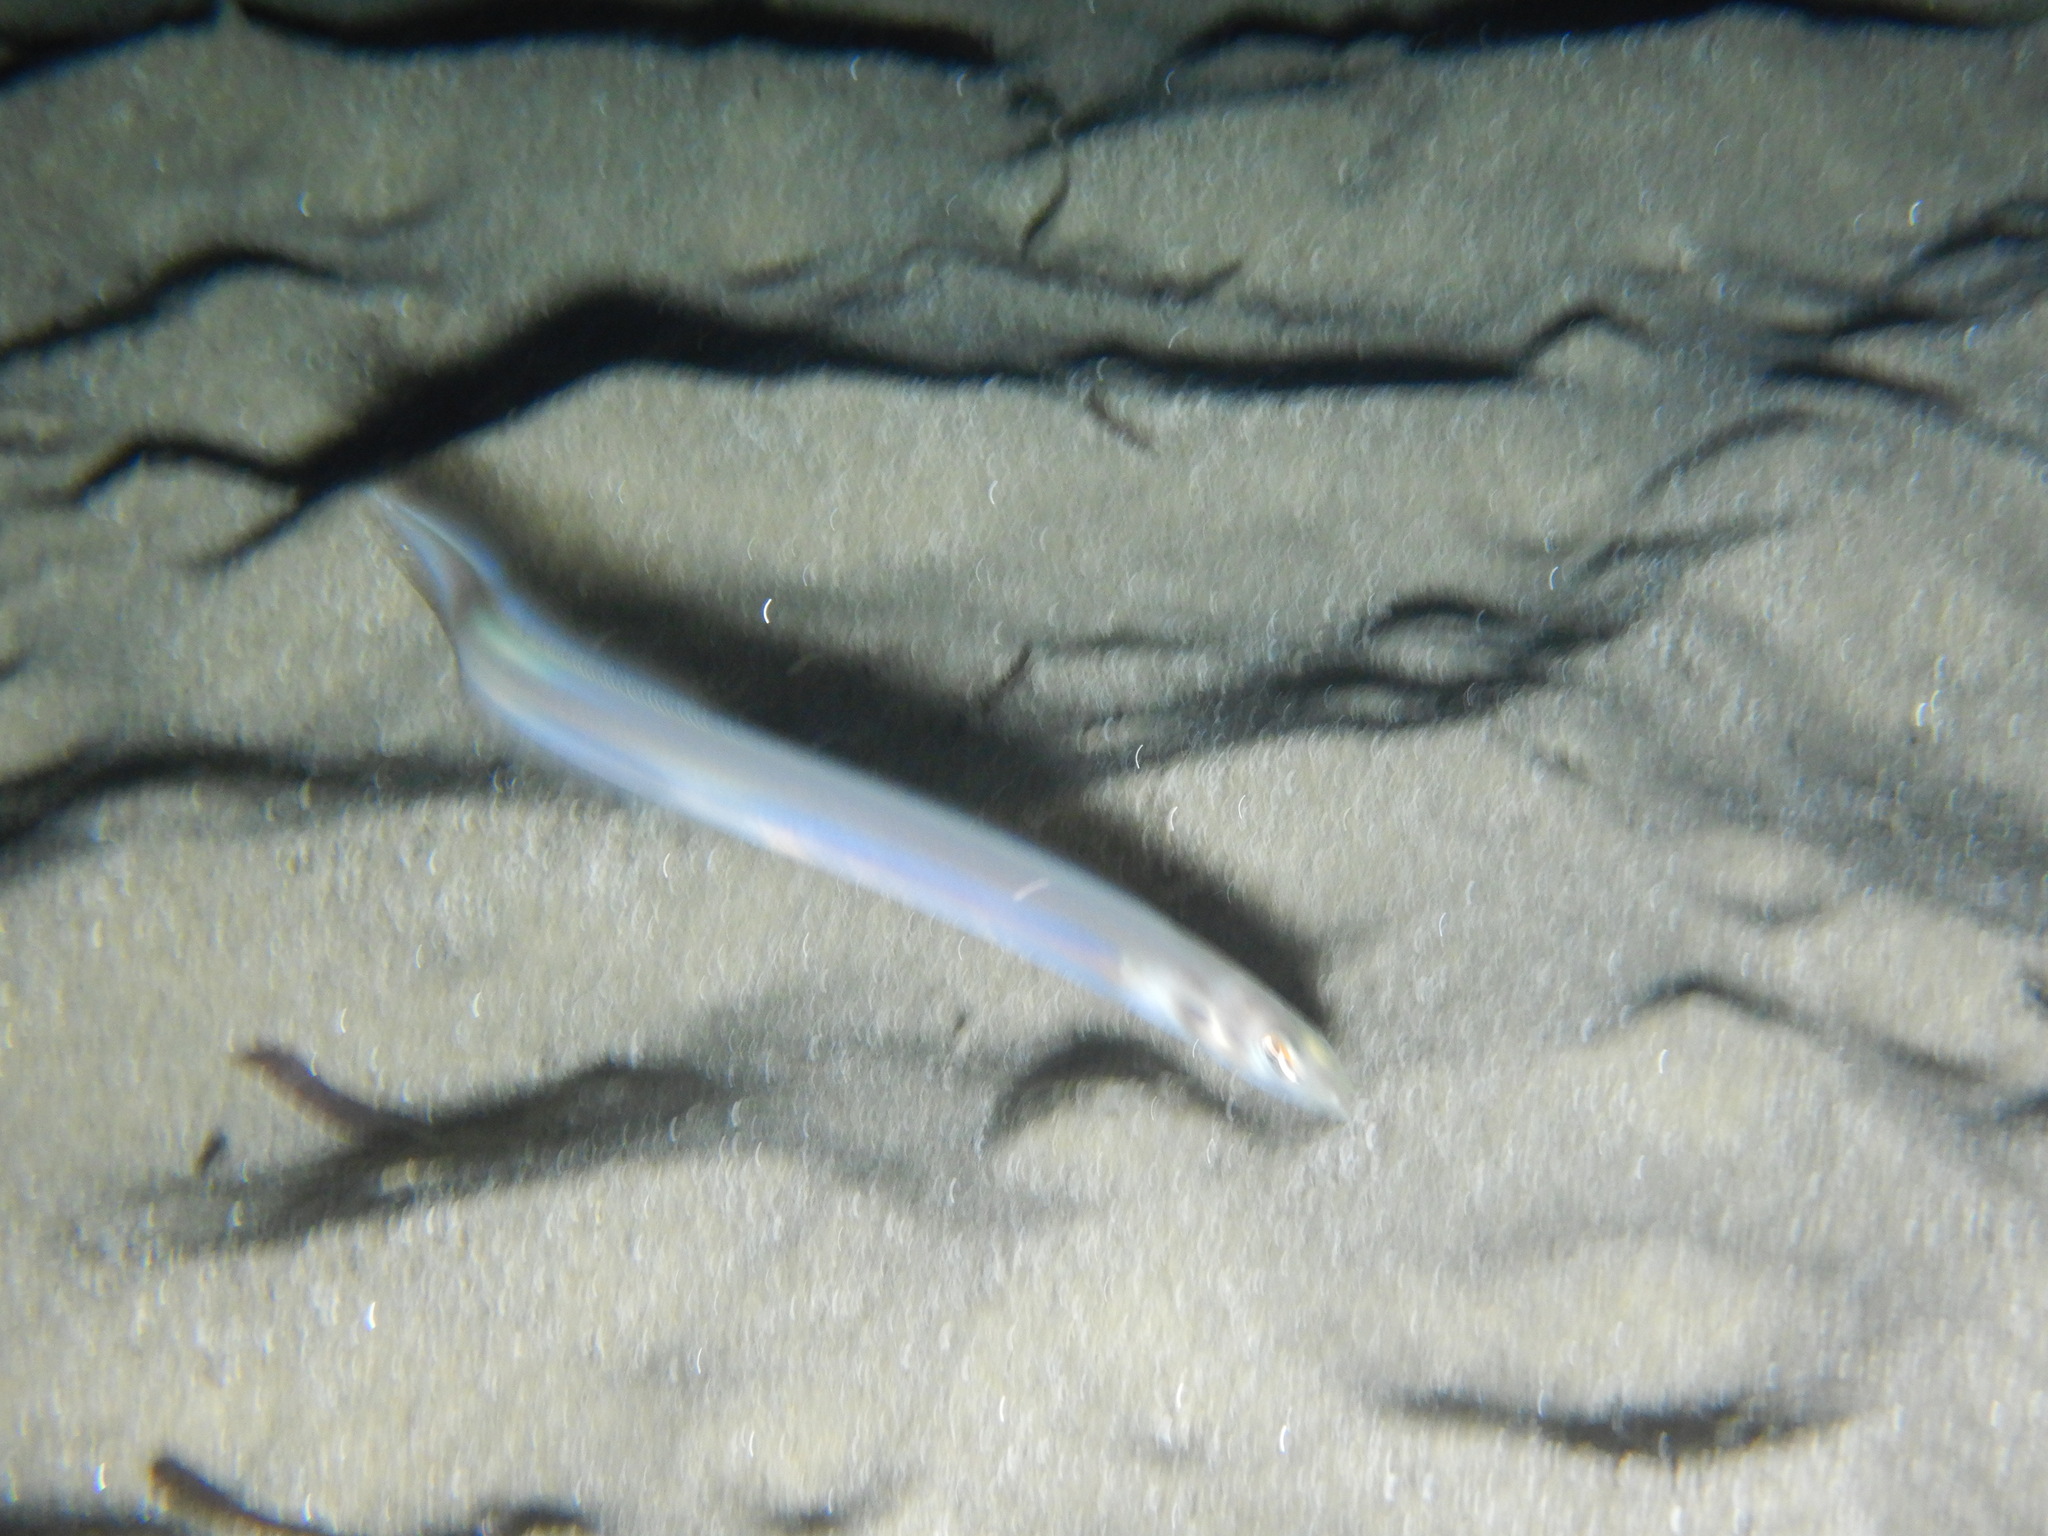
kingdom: Animalia
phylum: Chordata
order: Anguilliformes
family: Congridae
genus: Ariosoma
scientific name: Ariosoma balearicum
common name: Bandtooth conger
